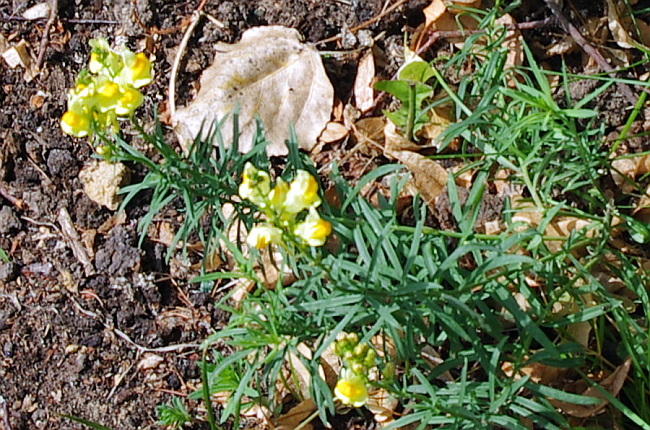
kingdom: Plantae
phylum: Tracheophyta
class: Magnoliopsida
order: Lamiales
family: Plantaginaceae
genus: Linaria
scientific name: Linaria vulgaris
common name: Butter and eggs
